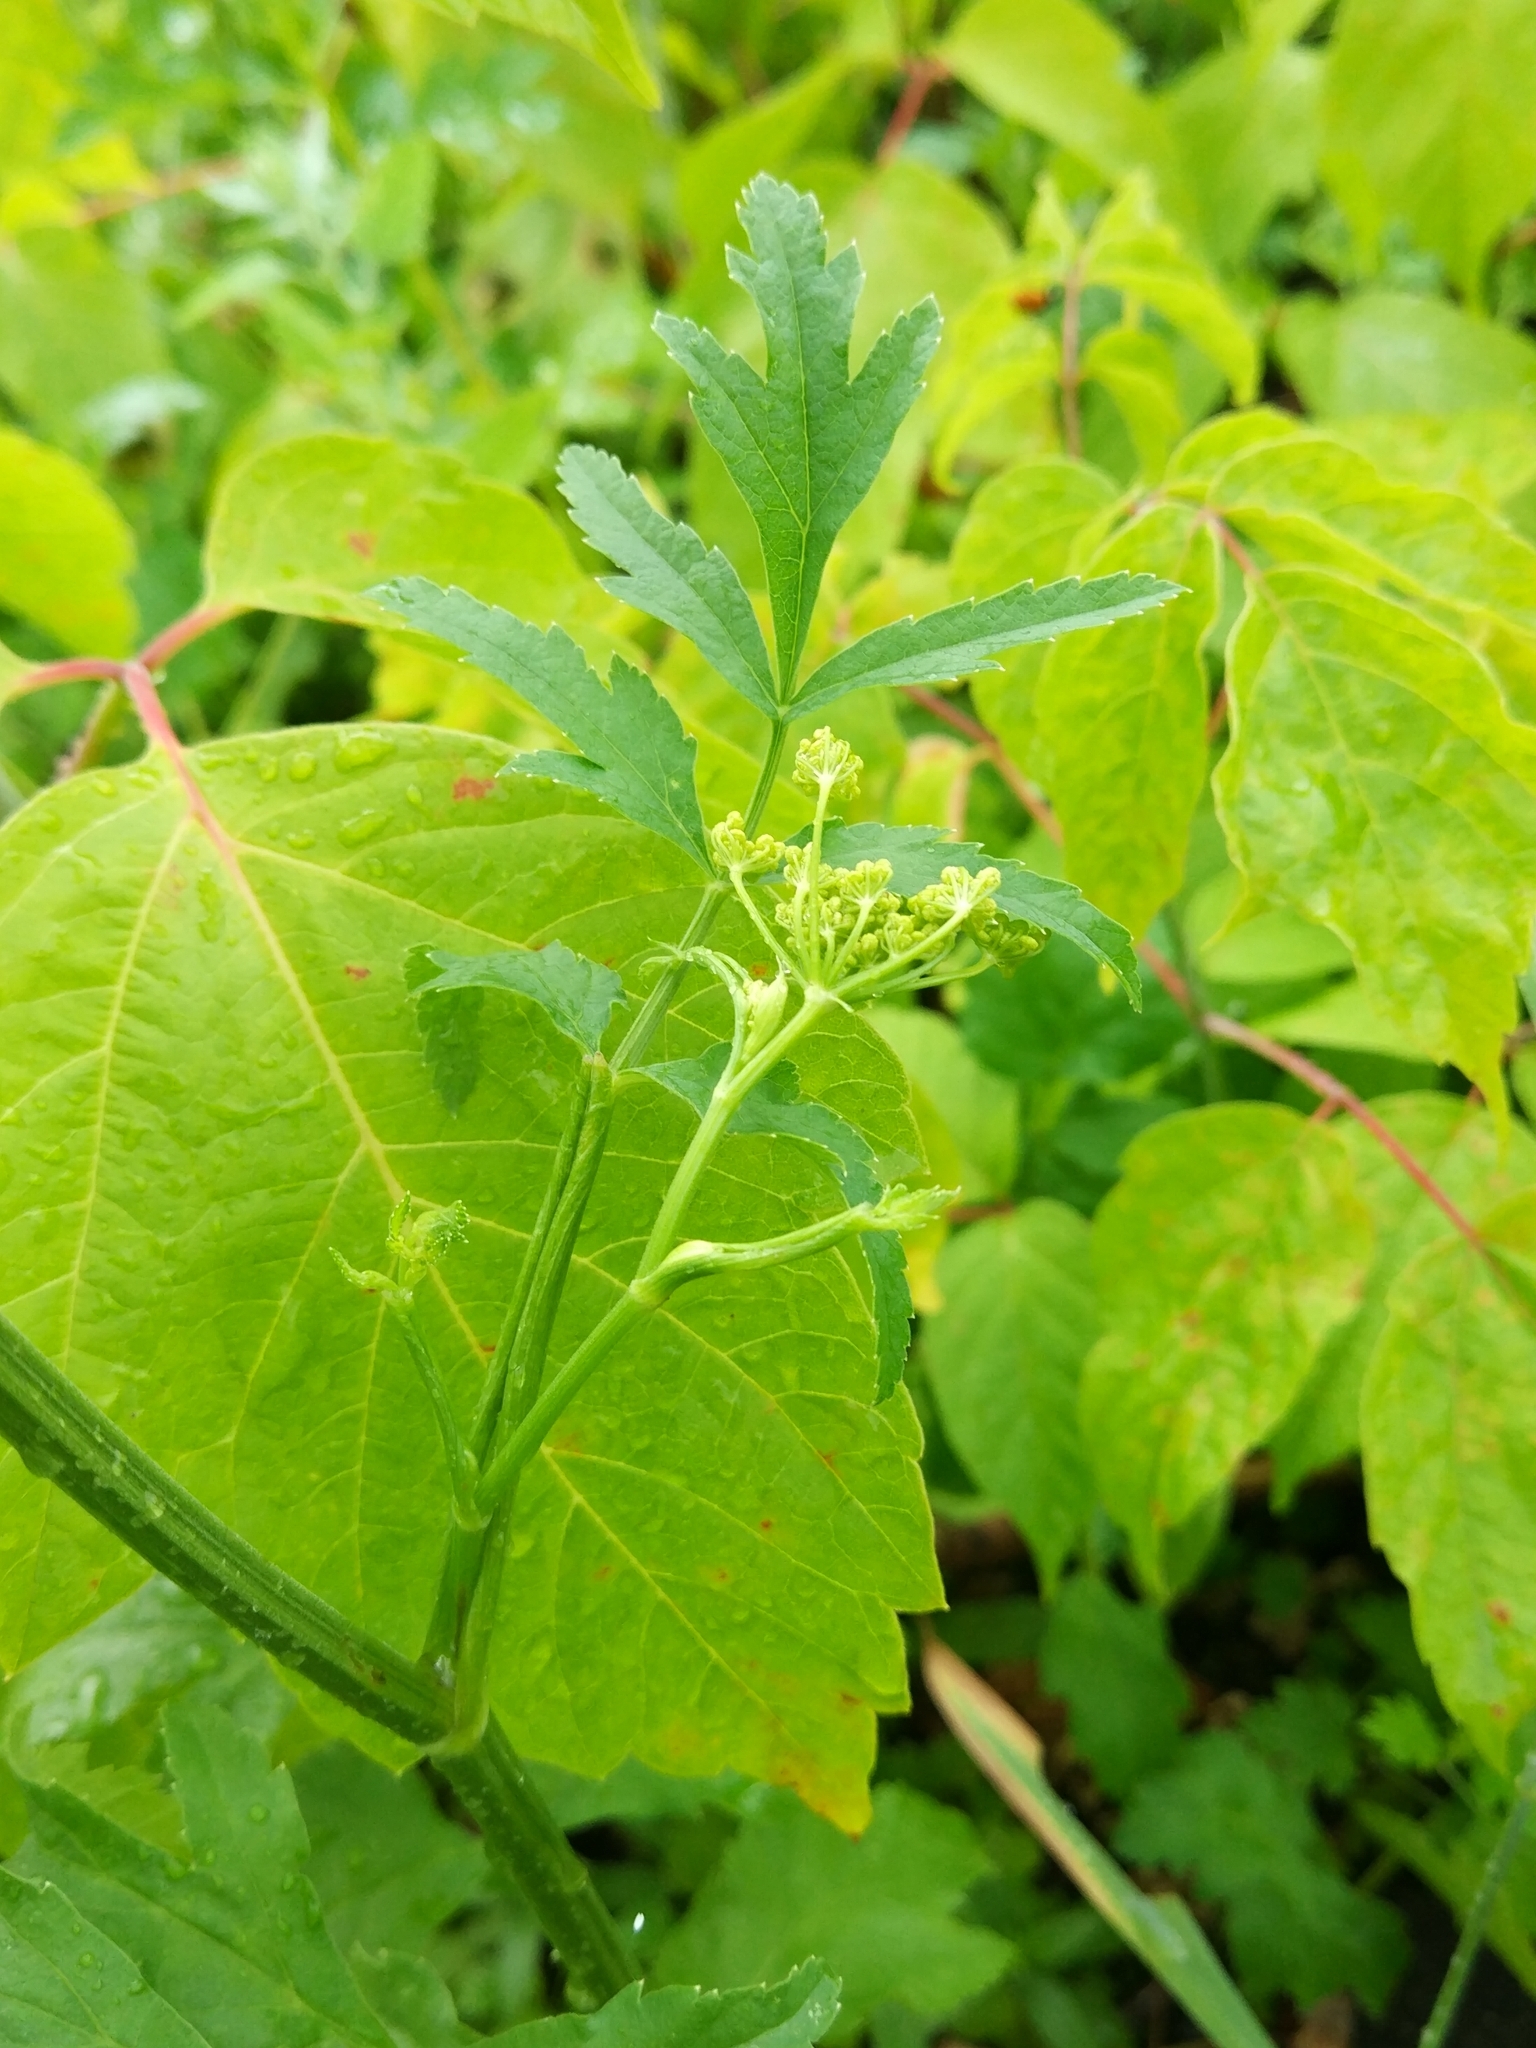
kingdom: Plantae
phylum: Tracheophyta
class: Magnoliopsida
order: Apiales
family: Apiaceae
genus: Pastinaca
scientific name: Pastinaca sativa
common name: Wild parsnip
